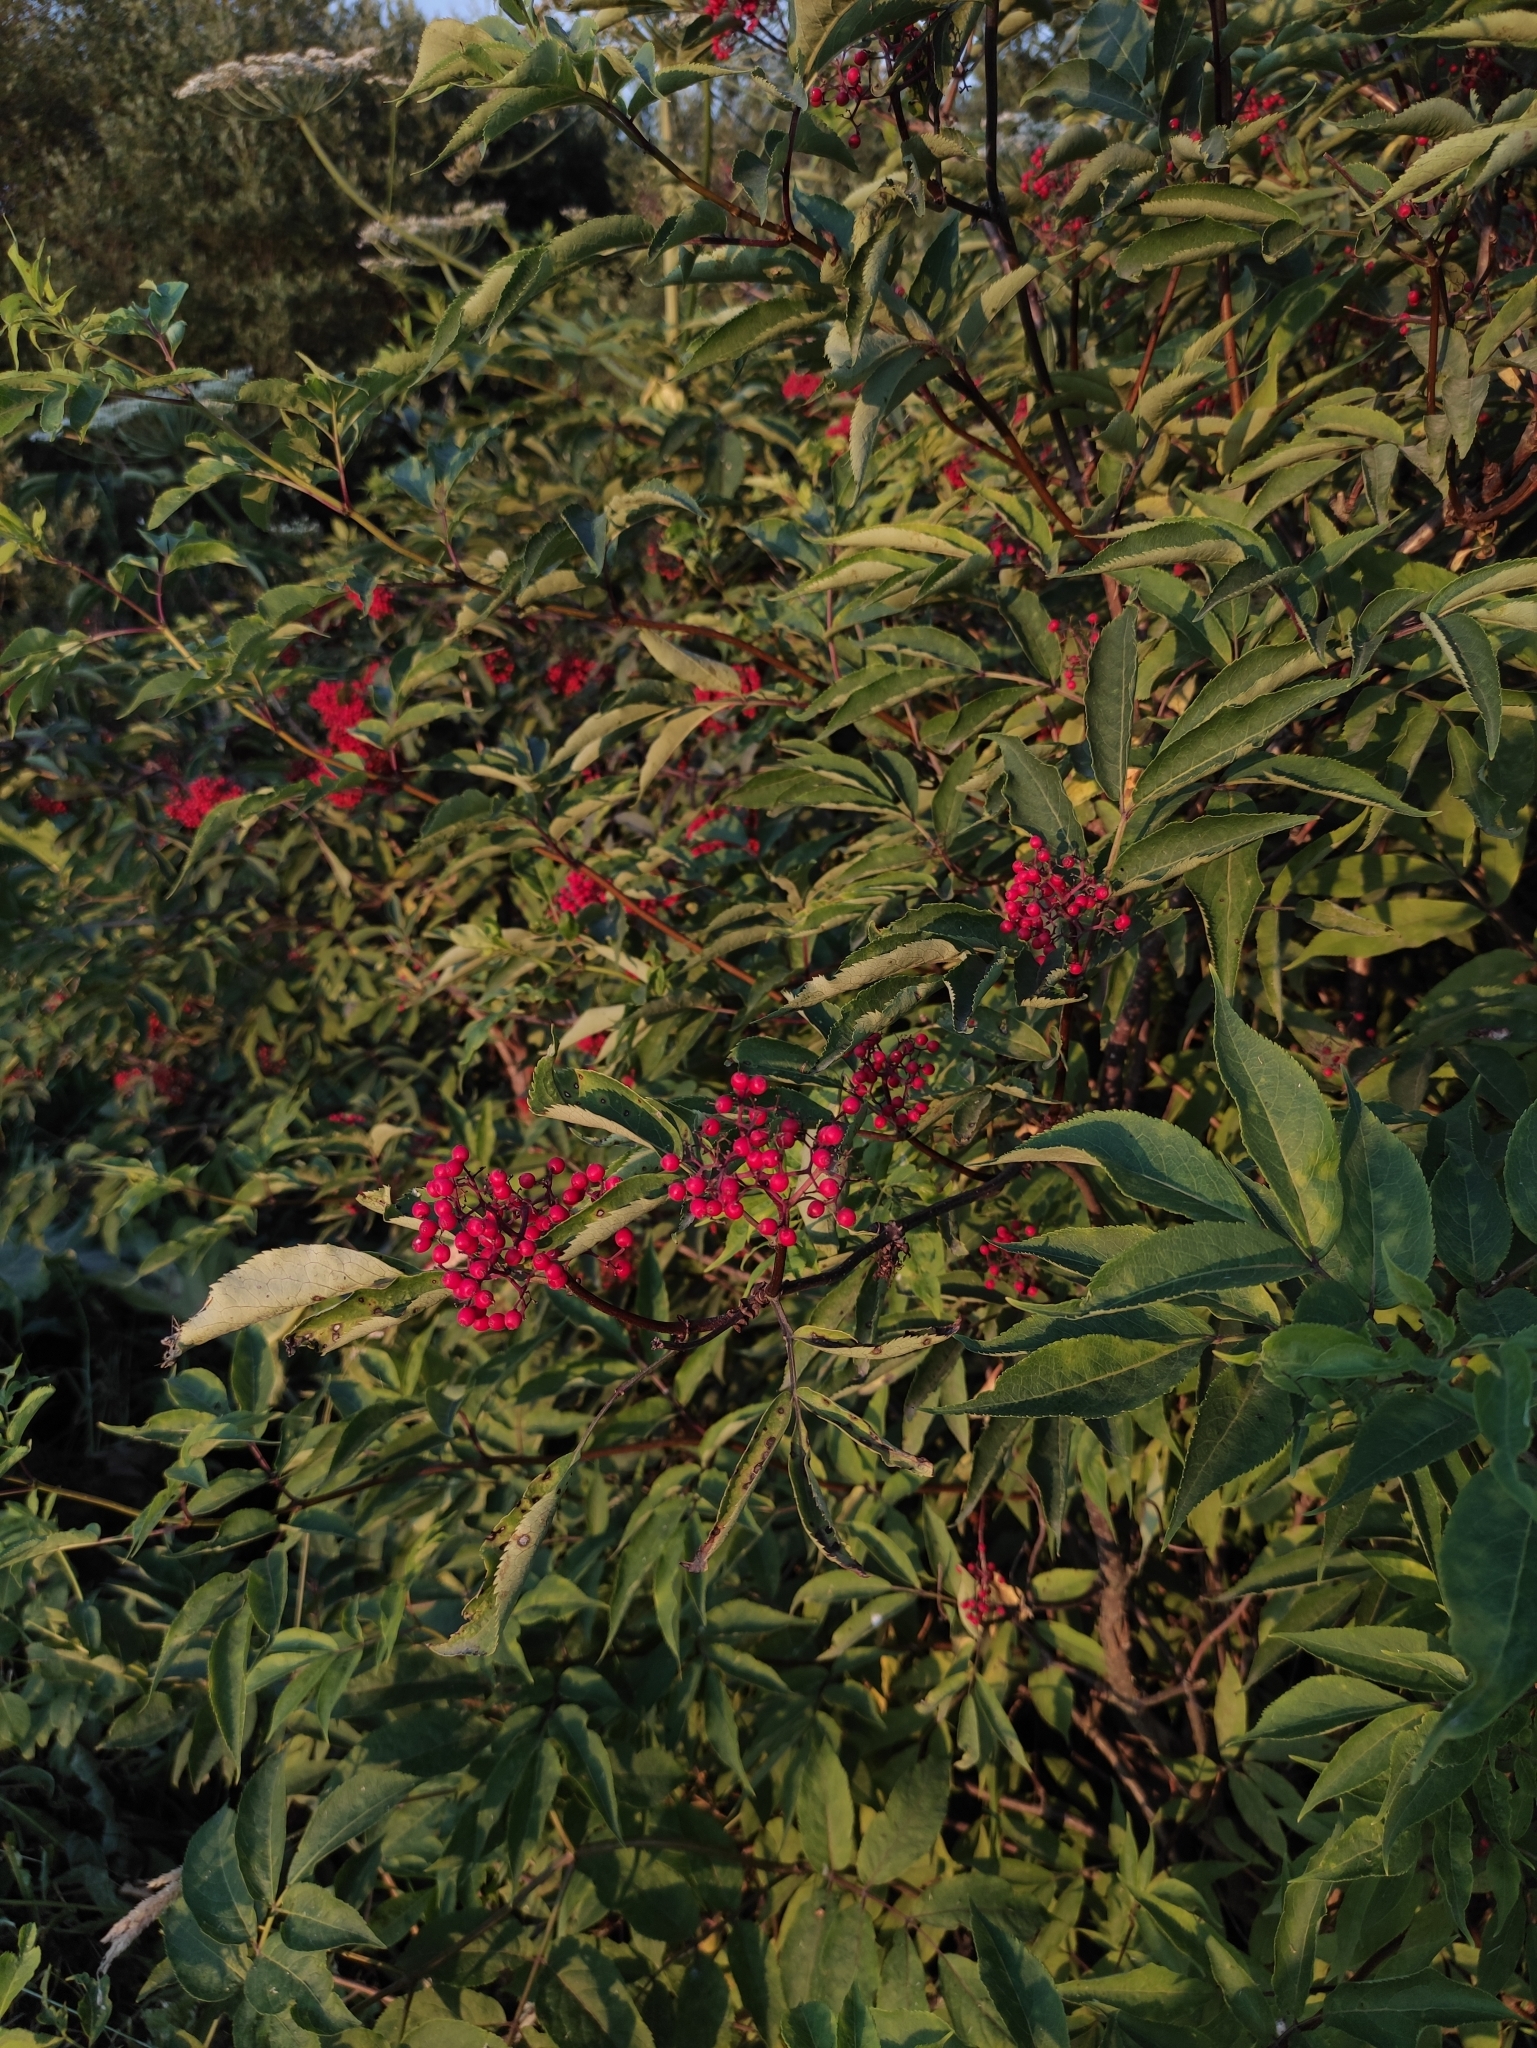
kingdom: Plantae
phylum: Tracheophyta
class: Magnoliopsida
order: Dipsacales
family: Viburnaceae
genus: Sambucus
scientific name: Sambucus racemosa
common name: Red-berried elder
